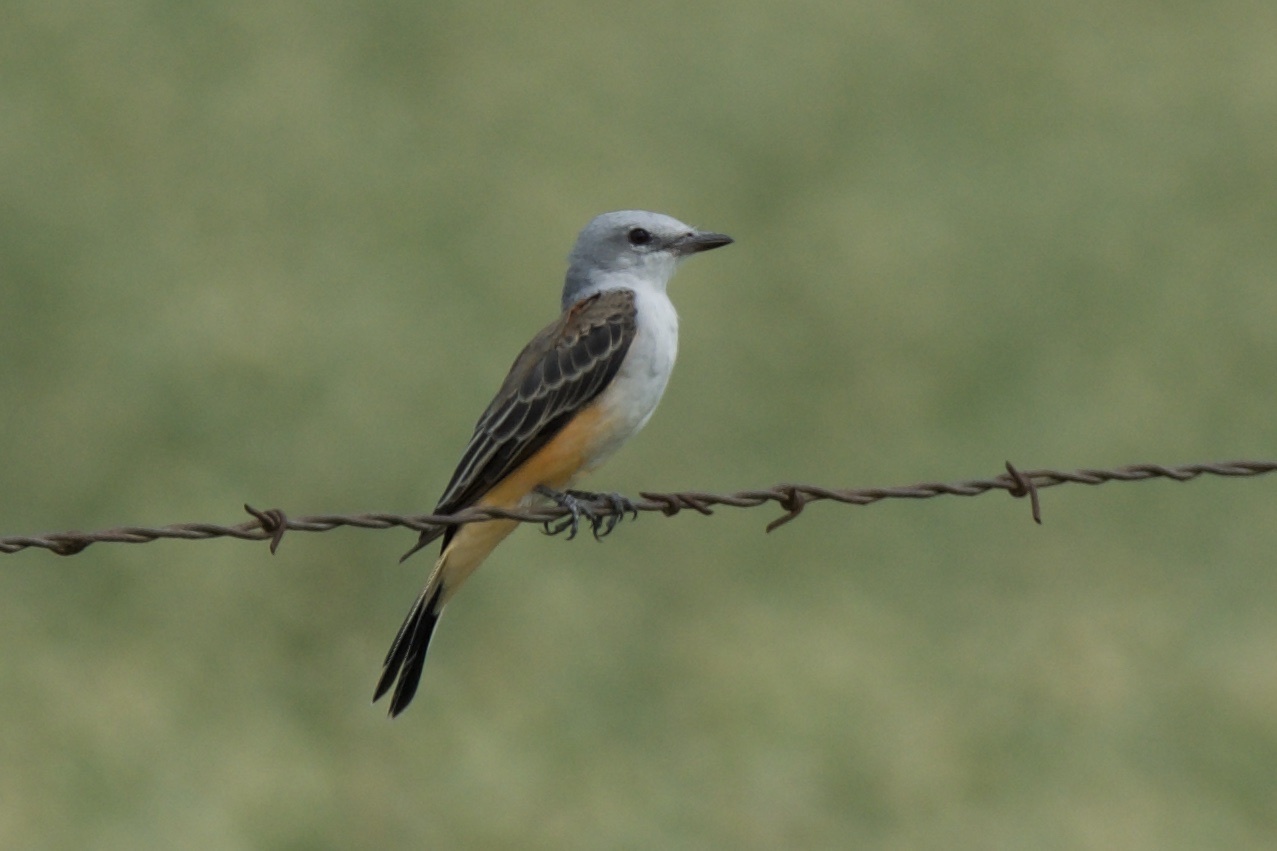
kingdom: Animalia
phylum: Chordata
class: Aves
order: Passeriformes
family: Tyrannidae
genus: Tyrannus
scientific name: Tyrannus forficatus
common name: Scissor-tailed flycatcher
